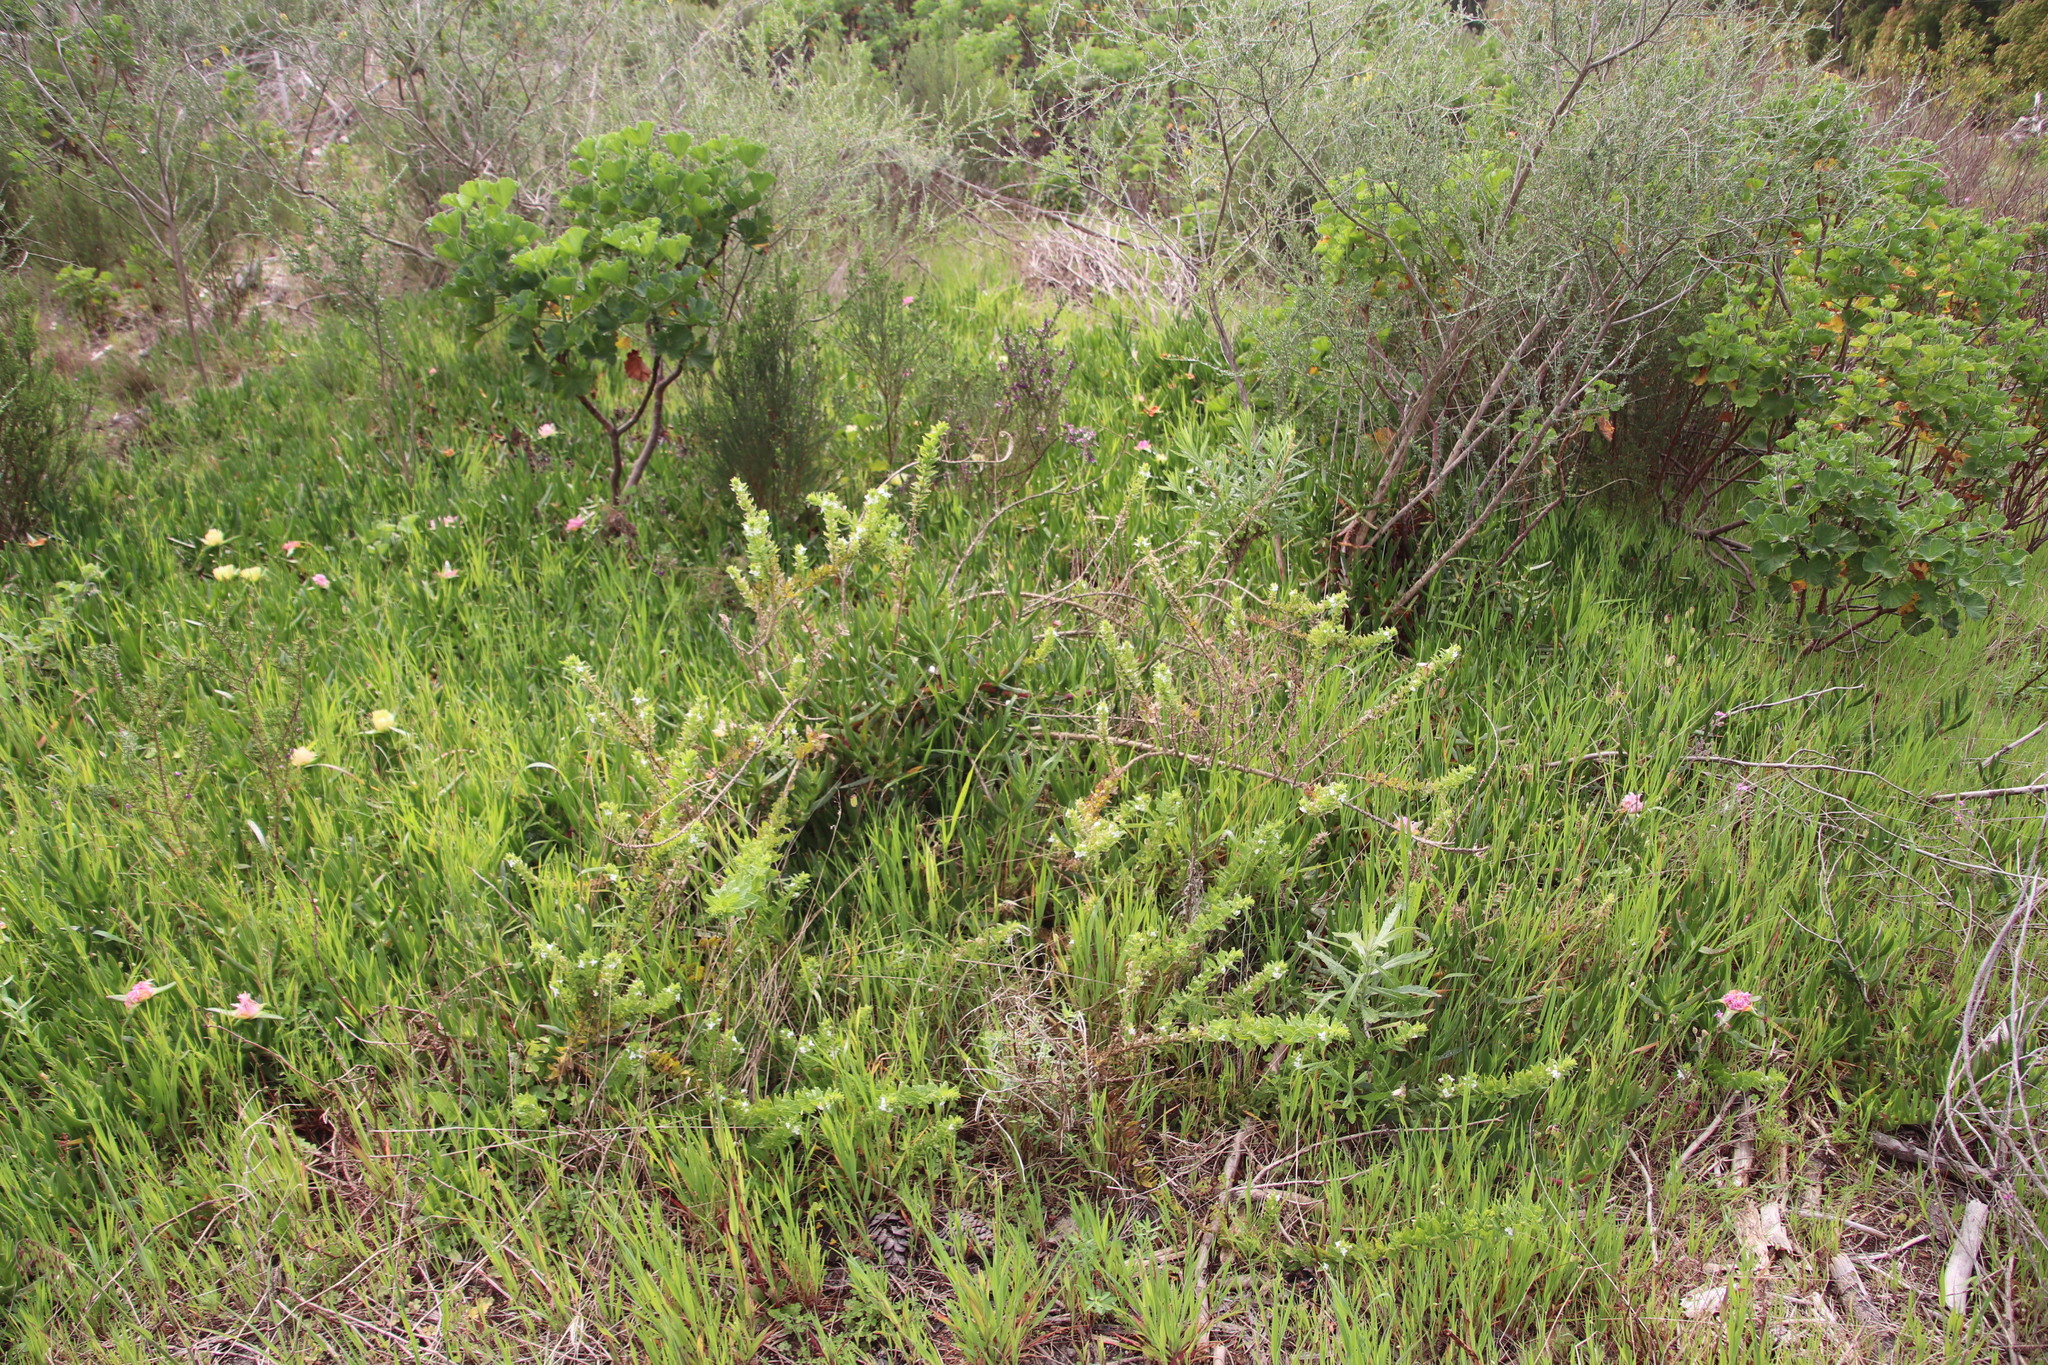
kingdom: Plantae
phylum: Tracheophyta
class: Magnoliopsida
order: Lamiales
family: Scrophulariaceae
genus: Oftia
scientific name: Oftia africana
